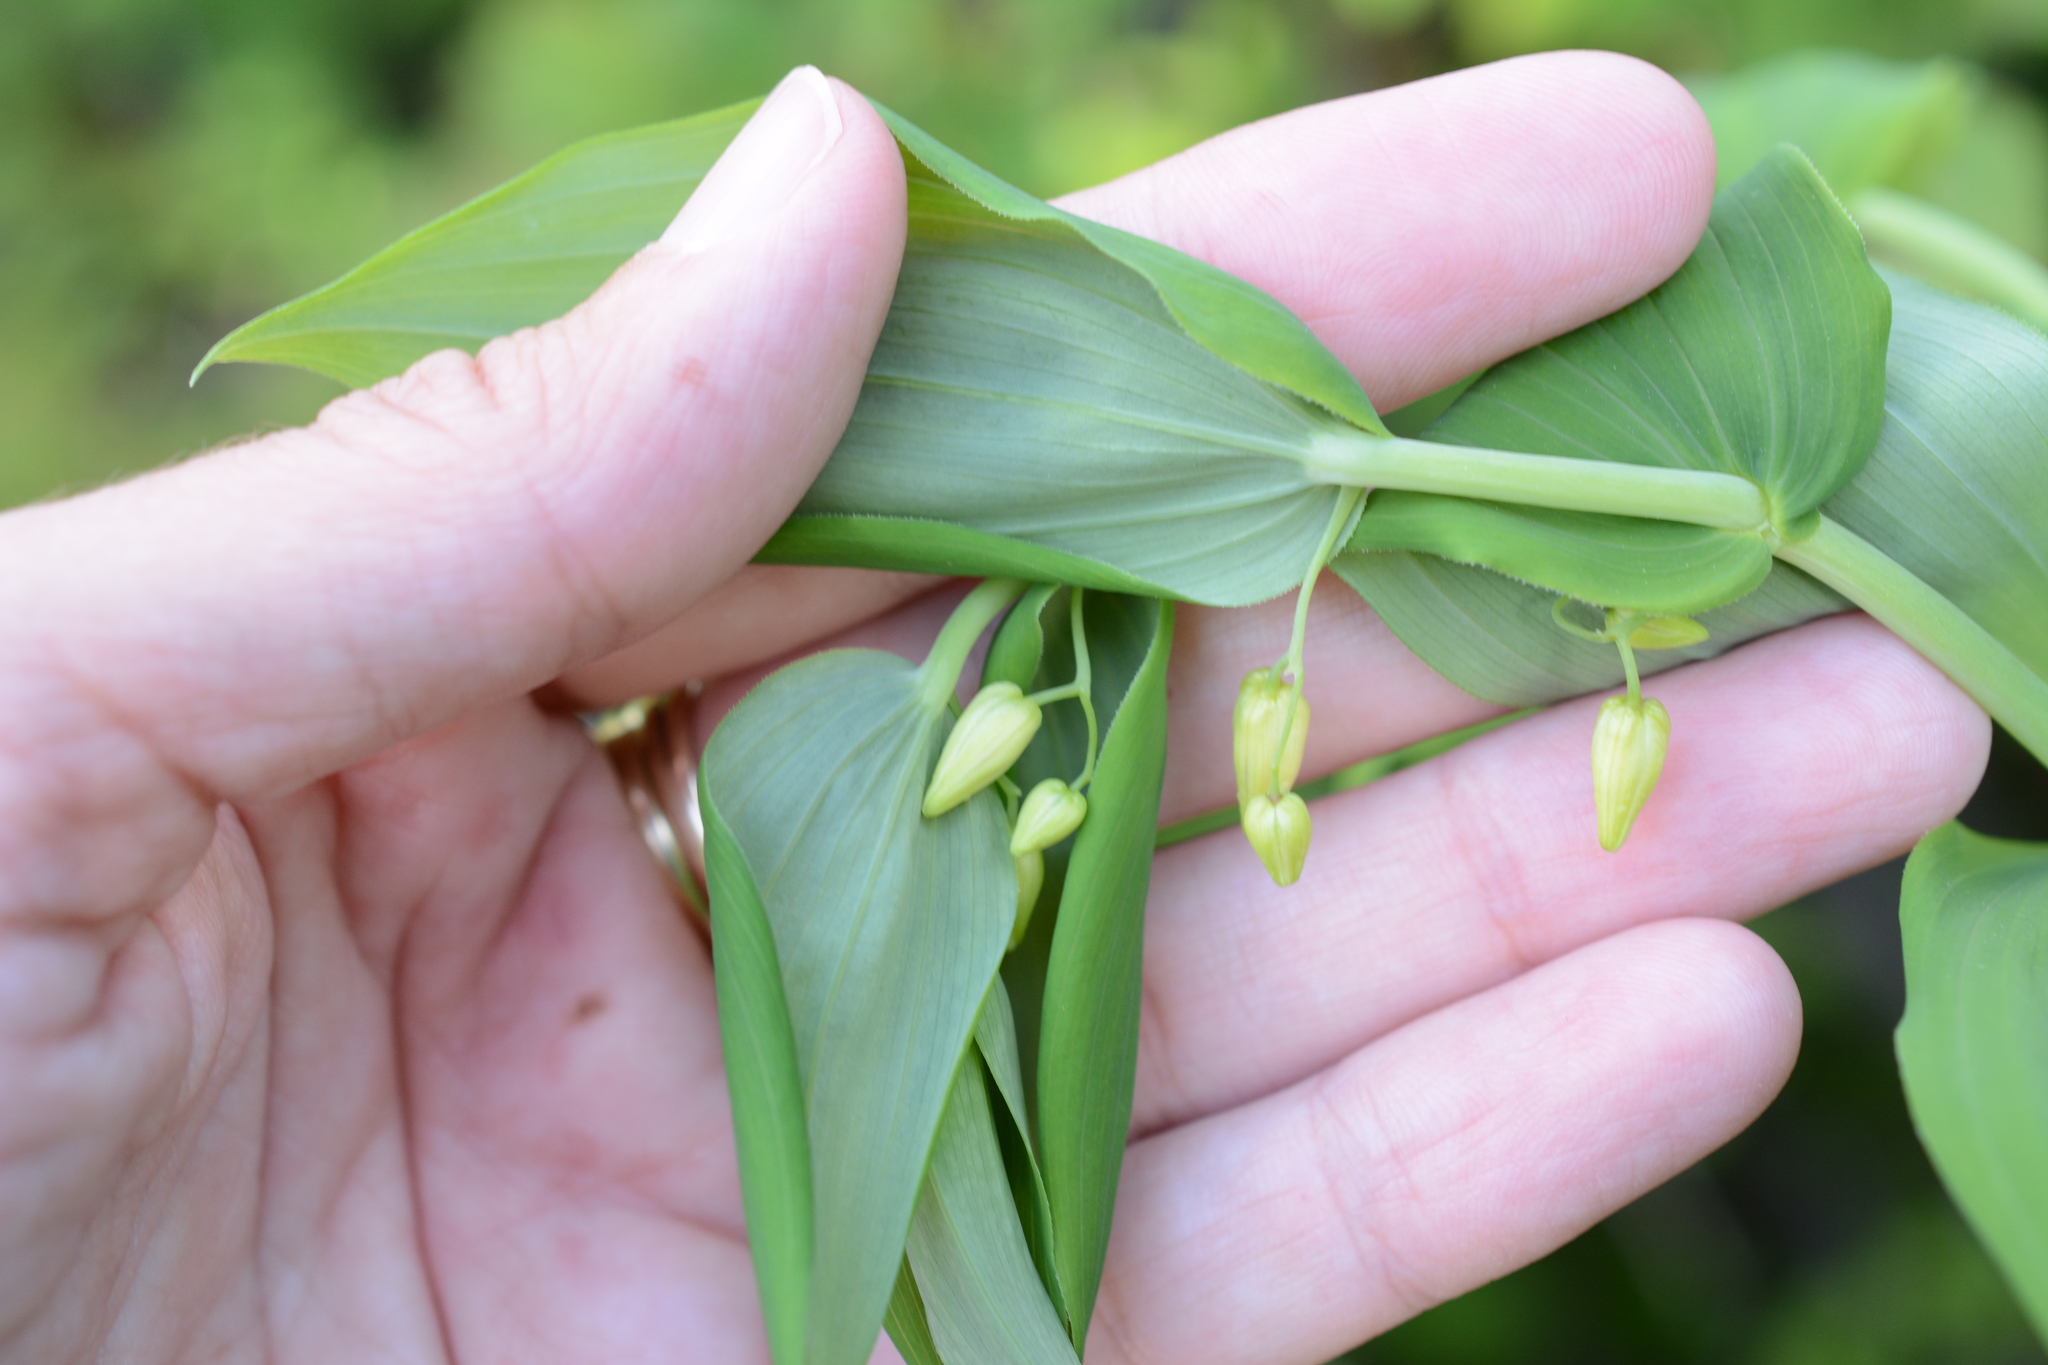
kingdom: Plantae
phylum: Tracheophyta
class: Liliopsida
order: Liliales
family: Liliaceae
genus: Streptopus
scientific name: Streptopus amplexifolius
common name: Clasp twisted stalk
